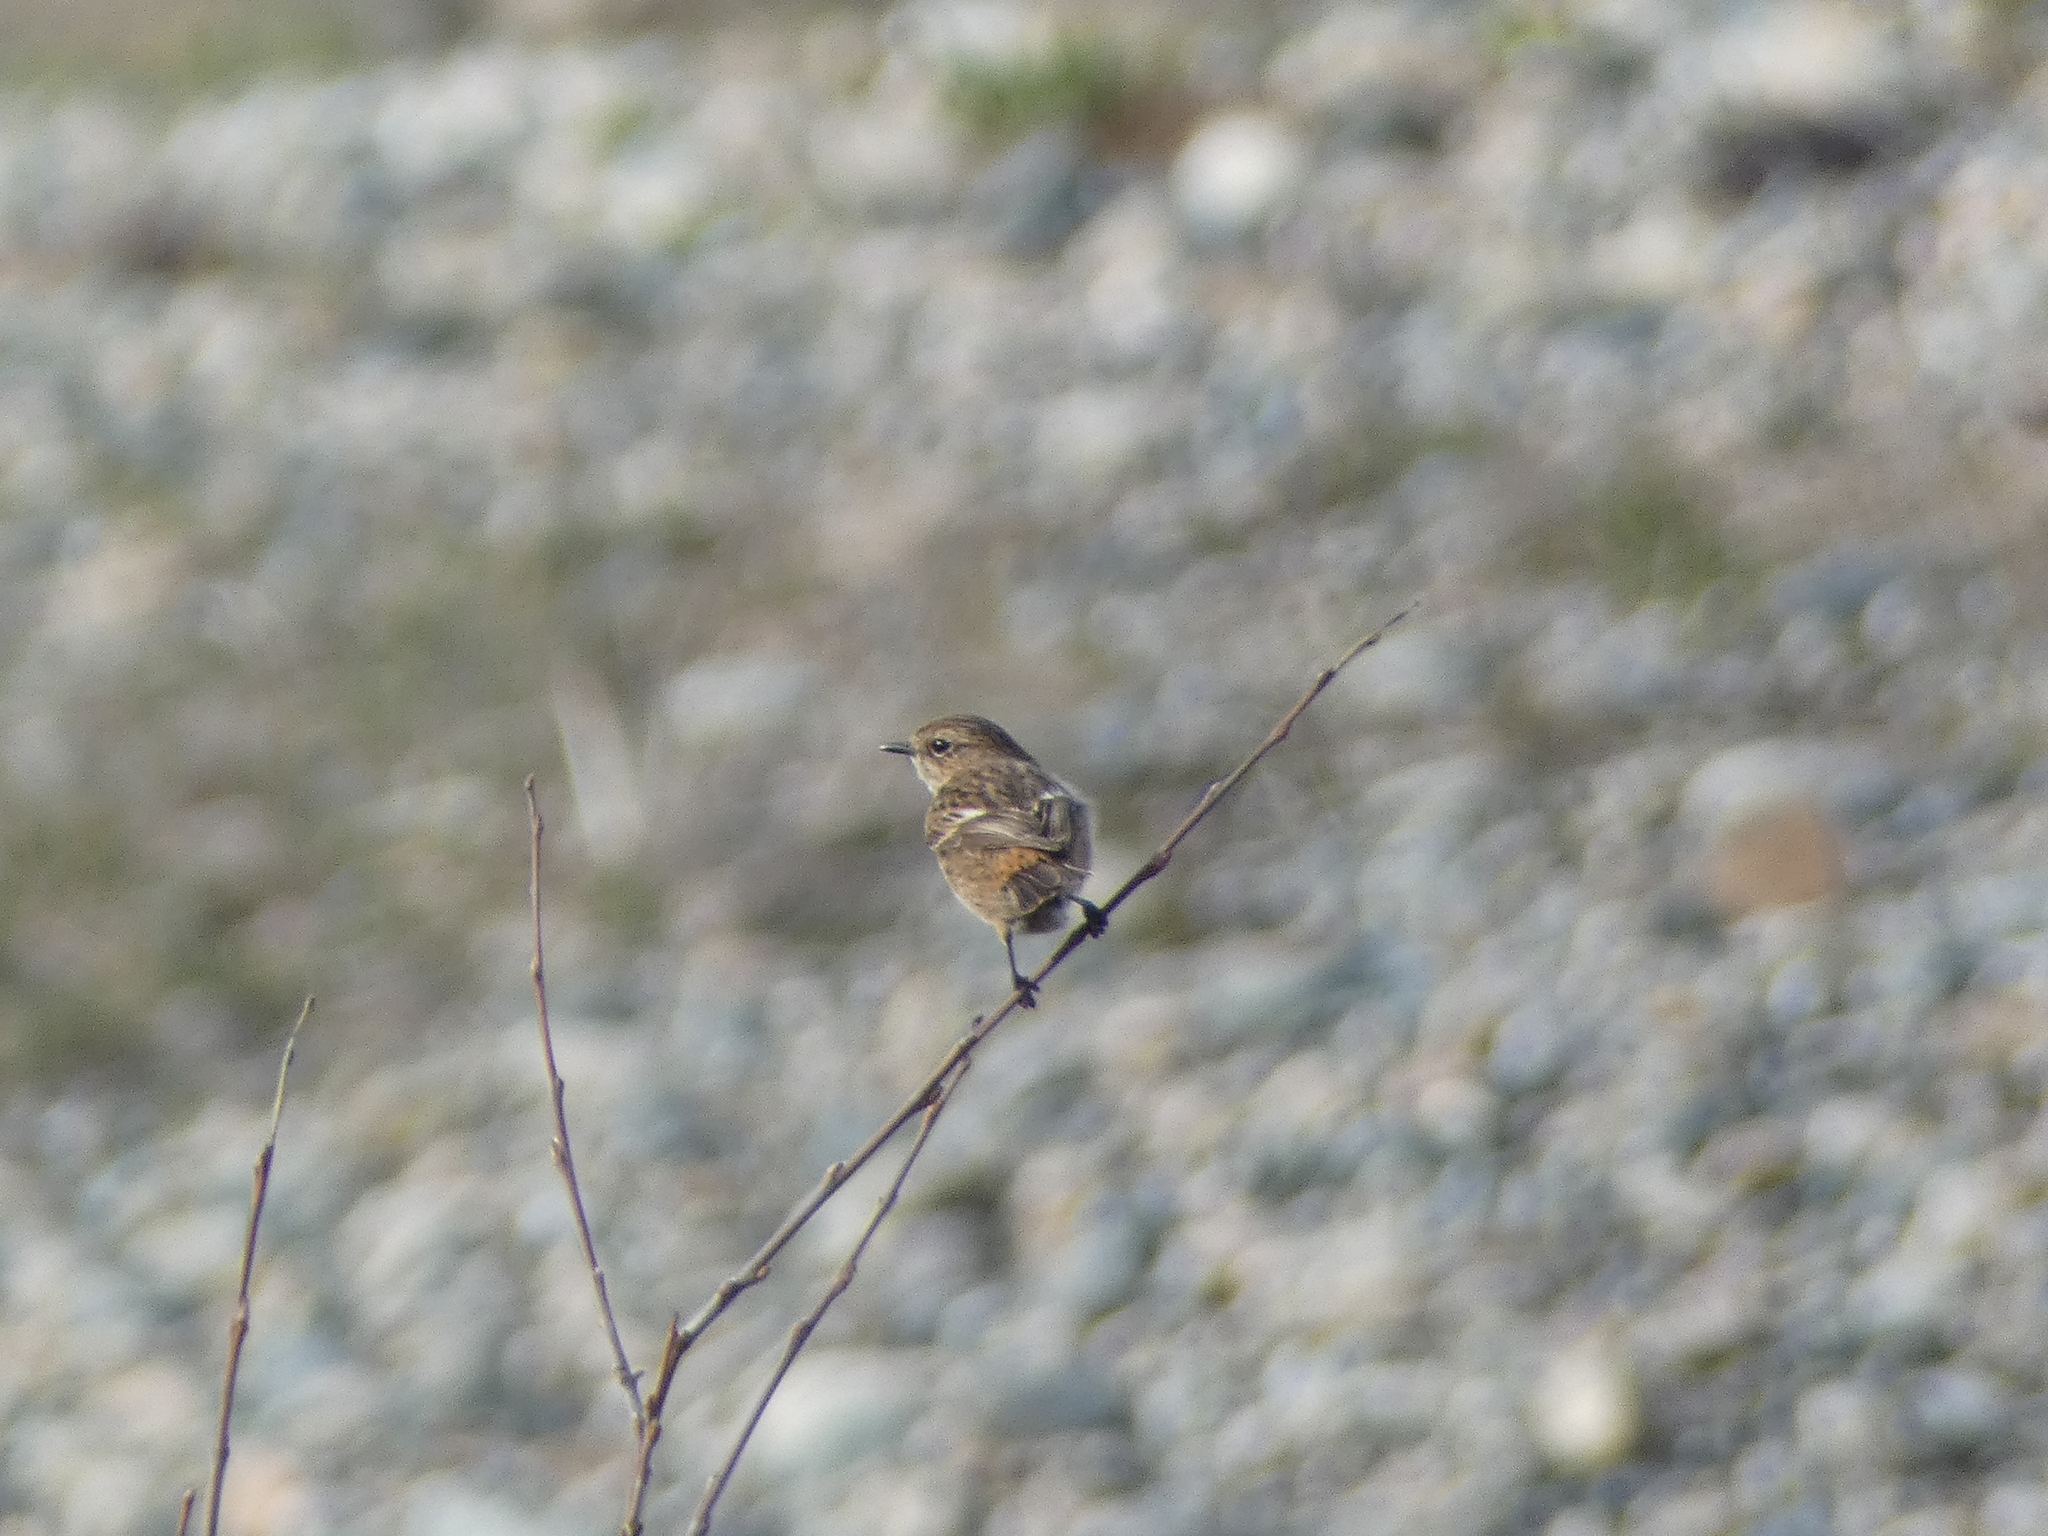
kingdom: Animalia
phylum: Chordata
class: Aves
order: Passeriformes
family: Muscicapidae
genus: Saxicola
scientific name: Saxicola rubicola
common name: European stonechat
